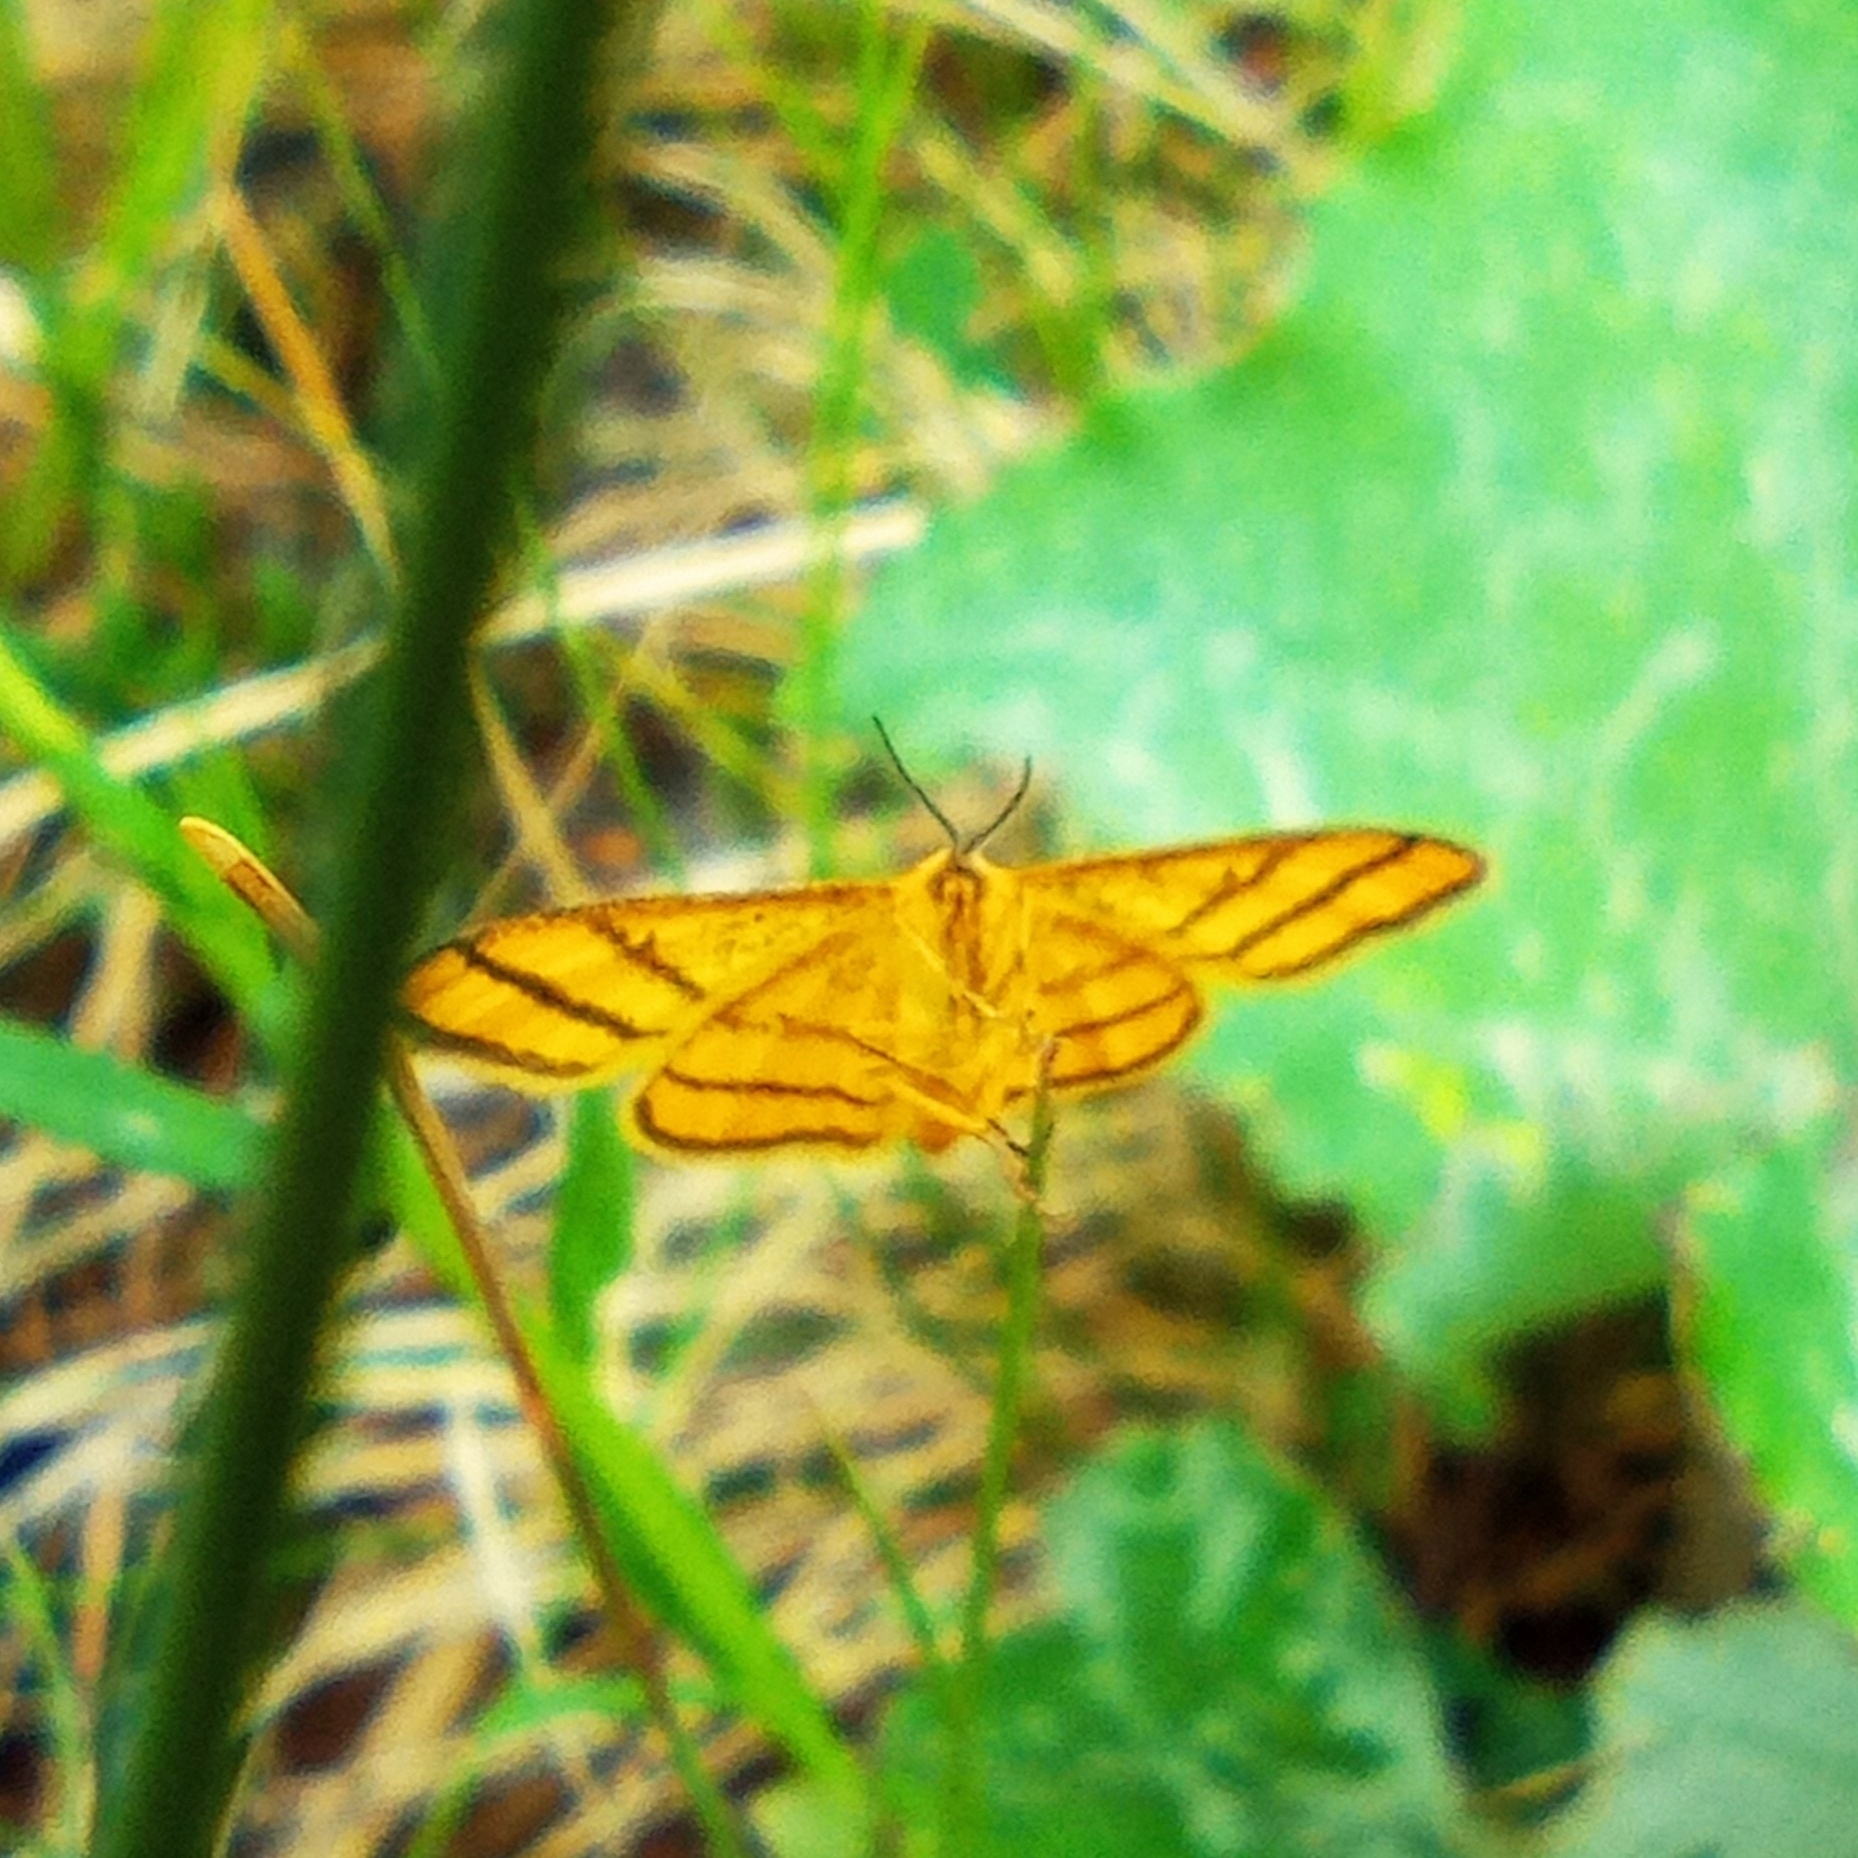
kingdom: Animalia
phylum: Arthropoda
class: Insecta
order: Lepidoptera
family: Geometridae
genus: Idaea
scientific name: Idaea aureolaria
